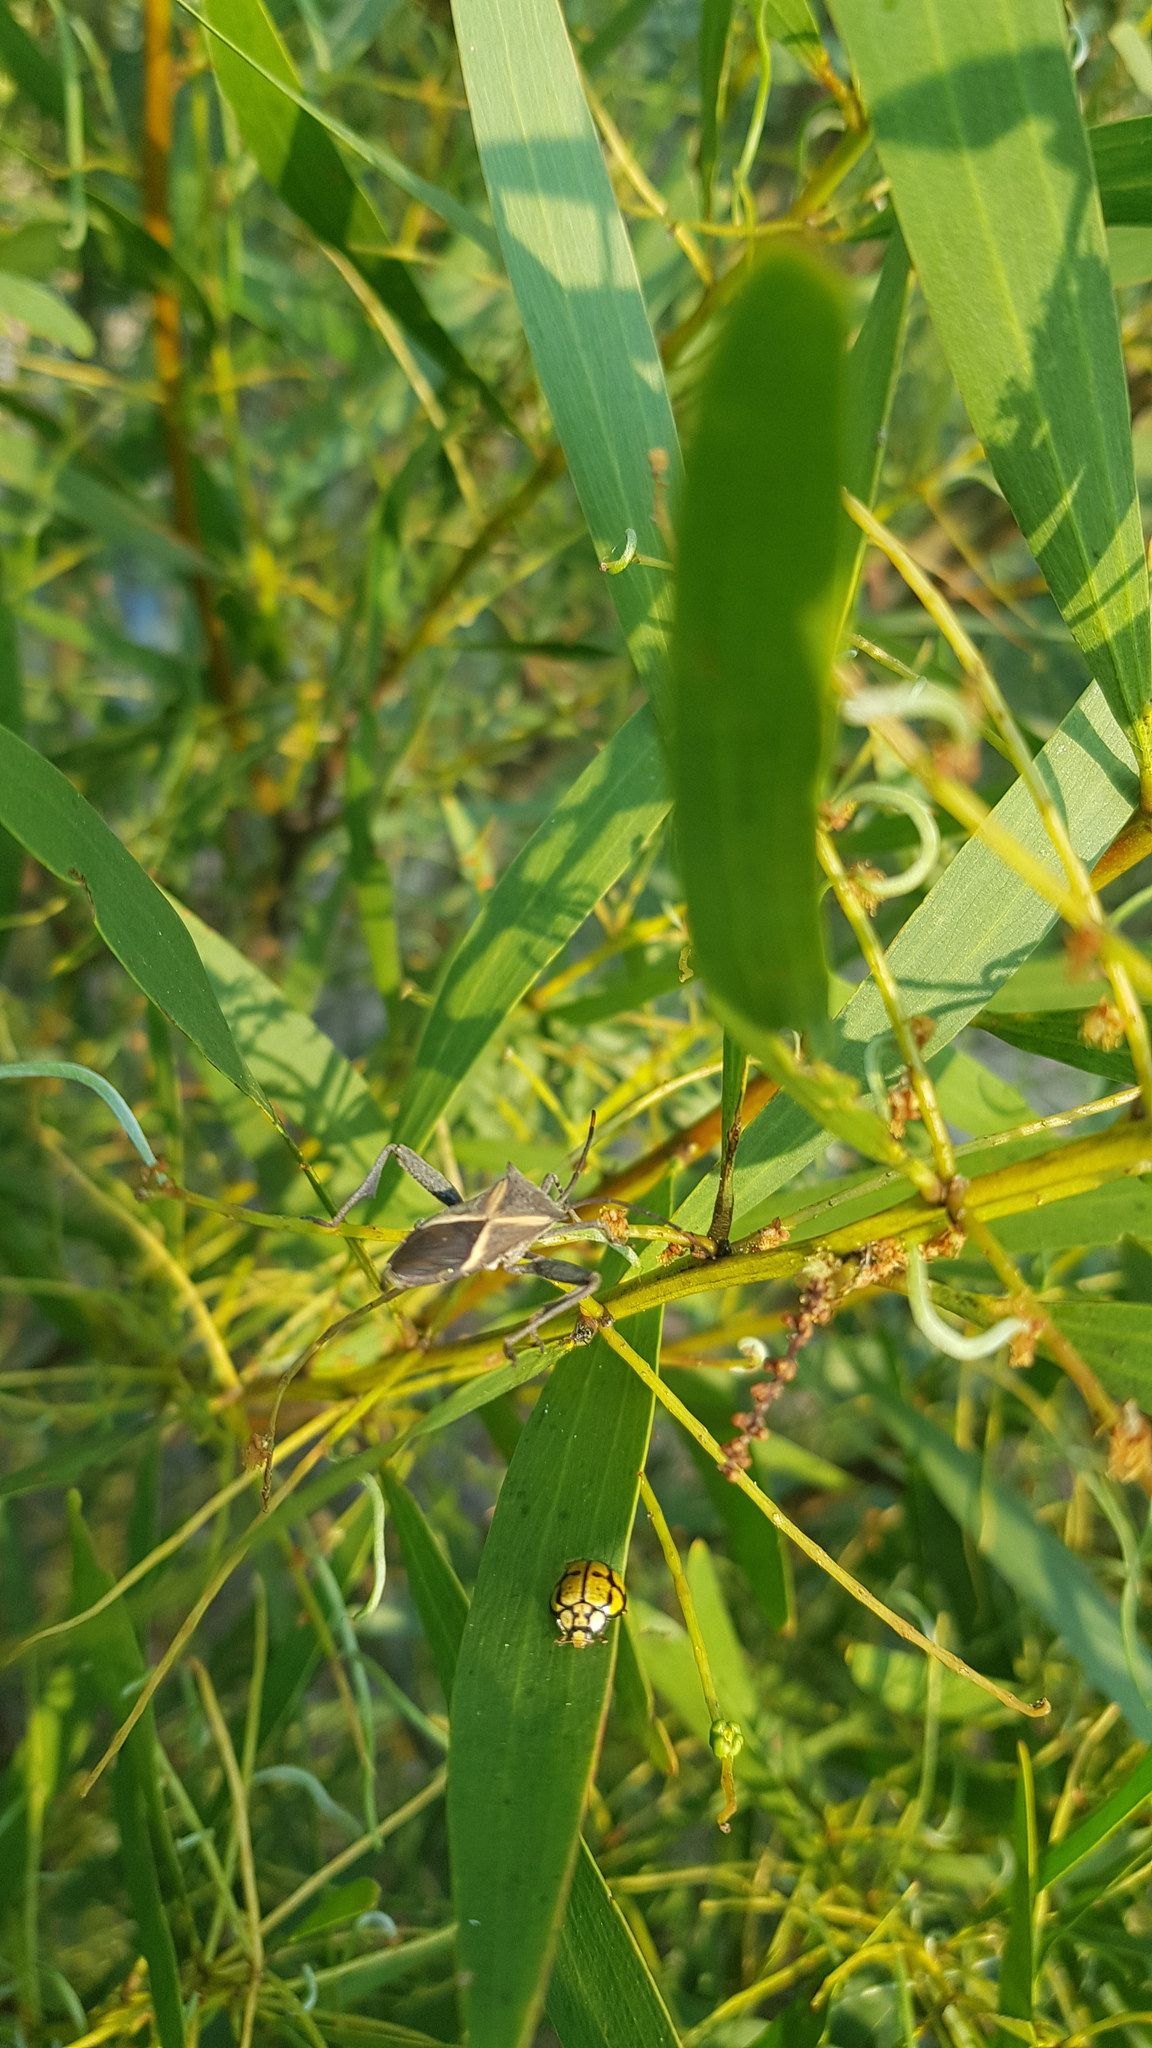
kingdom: Animalia
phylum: Arthropoda
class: Insecta
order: Hemiptera
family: Coreidae
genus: Mictis
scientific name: Mictis profana
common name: Crusader bug
